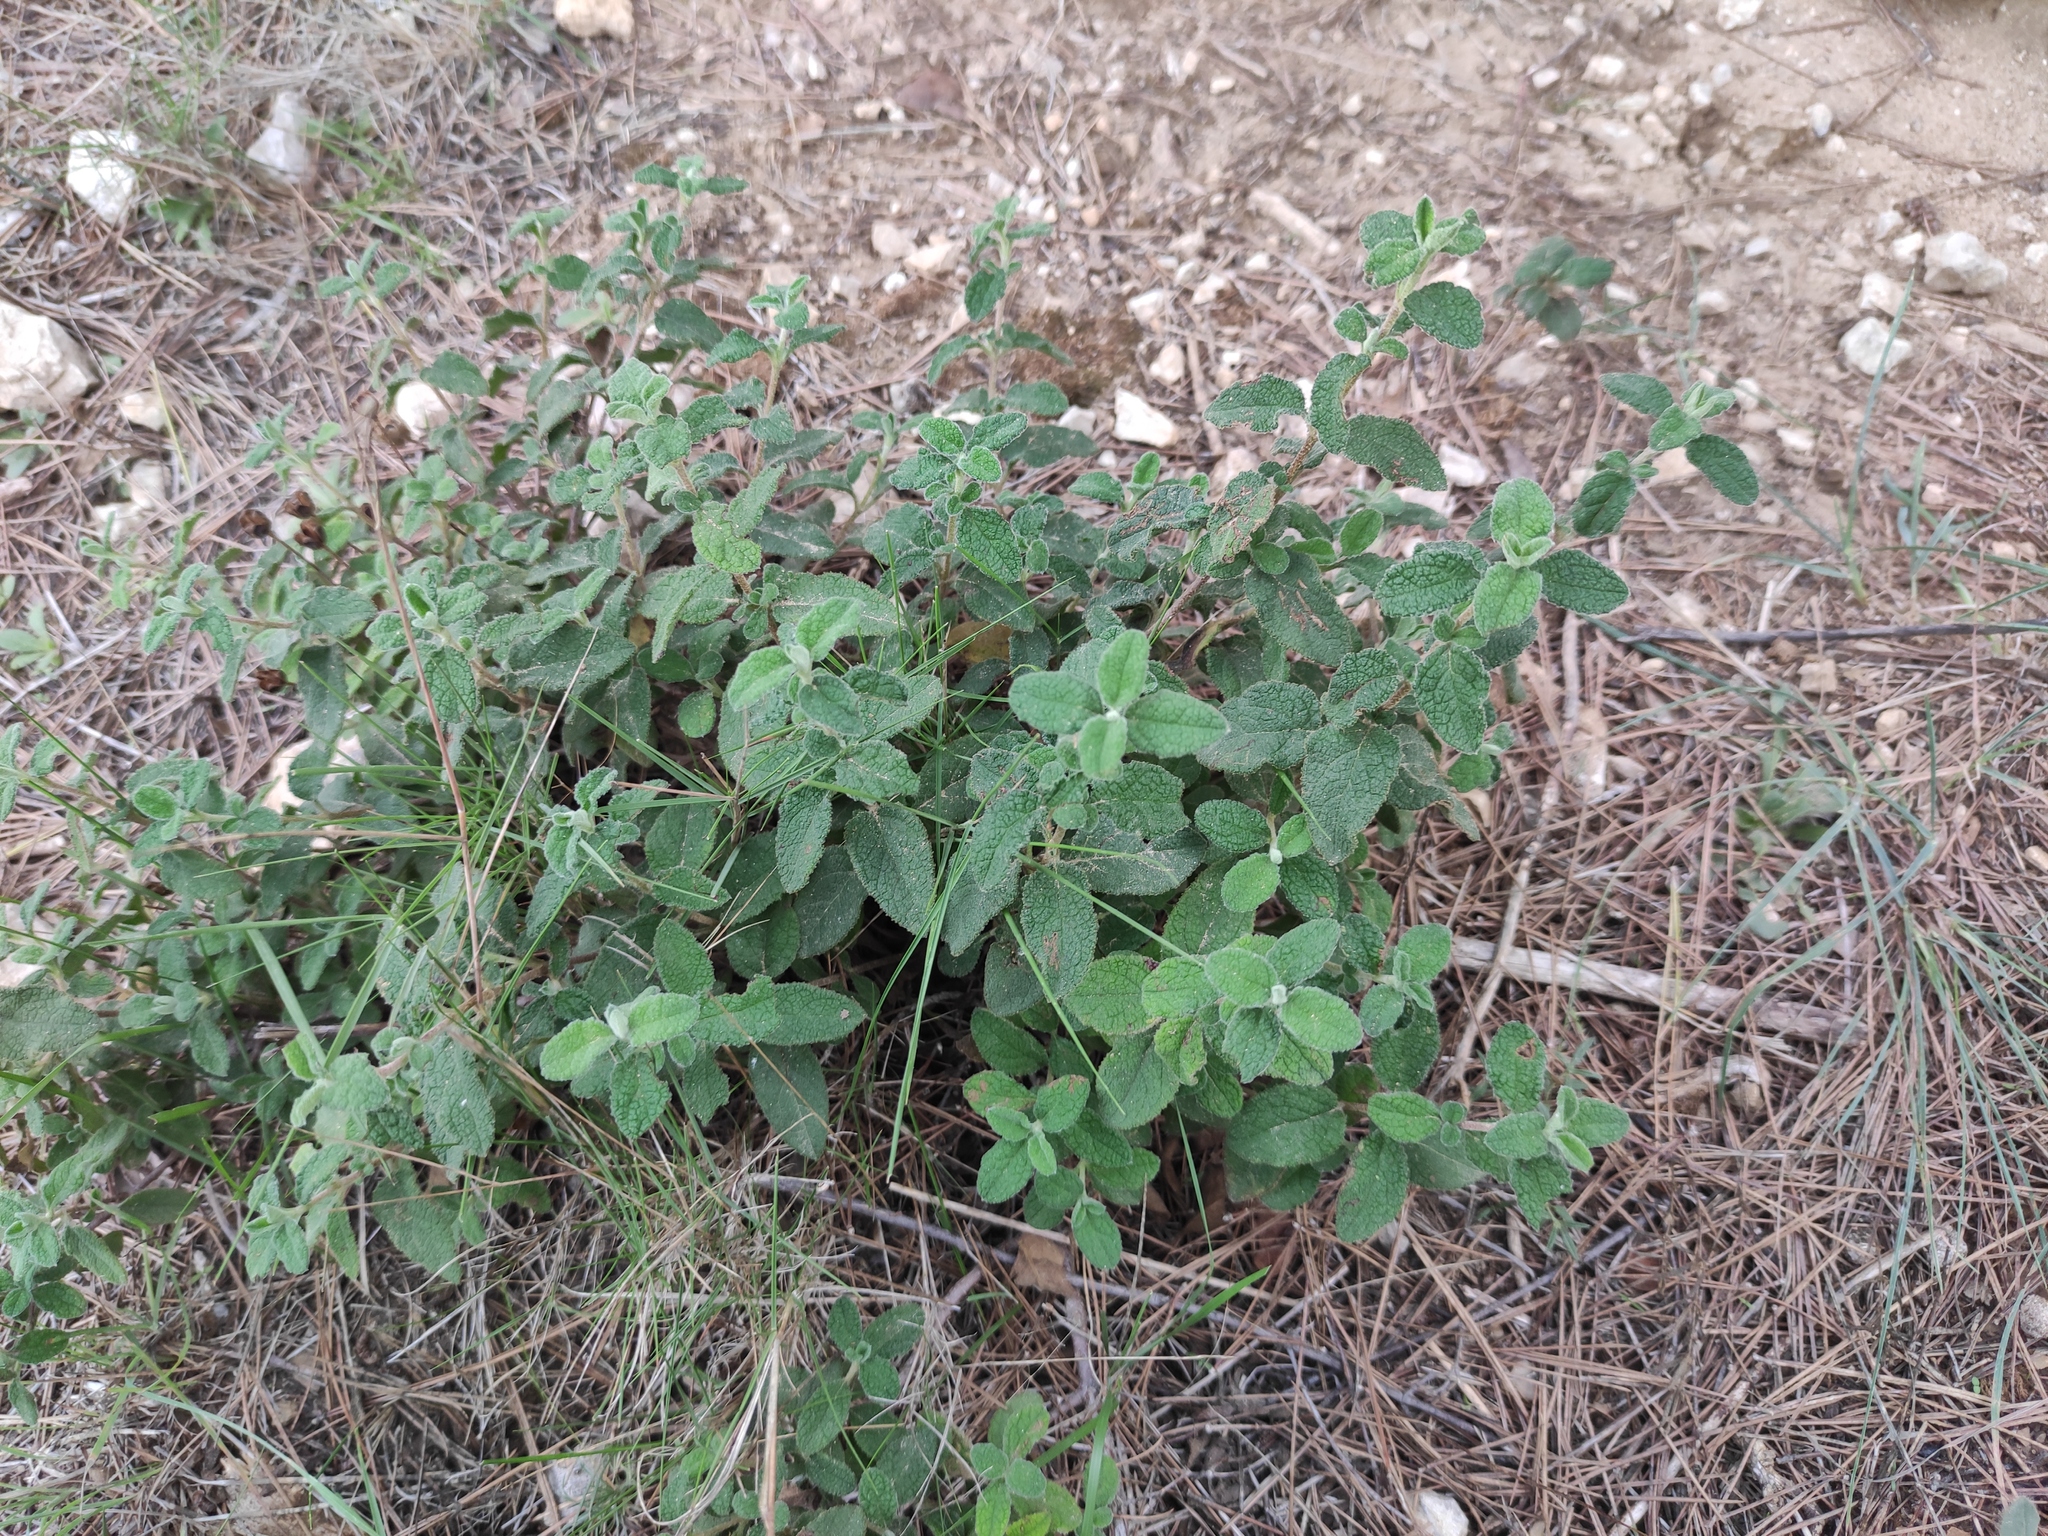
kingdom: Plantae
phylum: Tracheophyta
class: Magnoliopsida
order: Malvales
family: Cistaceae
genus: Cistus
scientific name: Cistus salviifolius
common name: Salvia cistus
